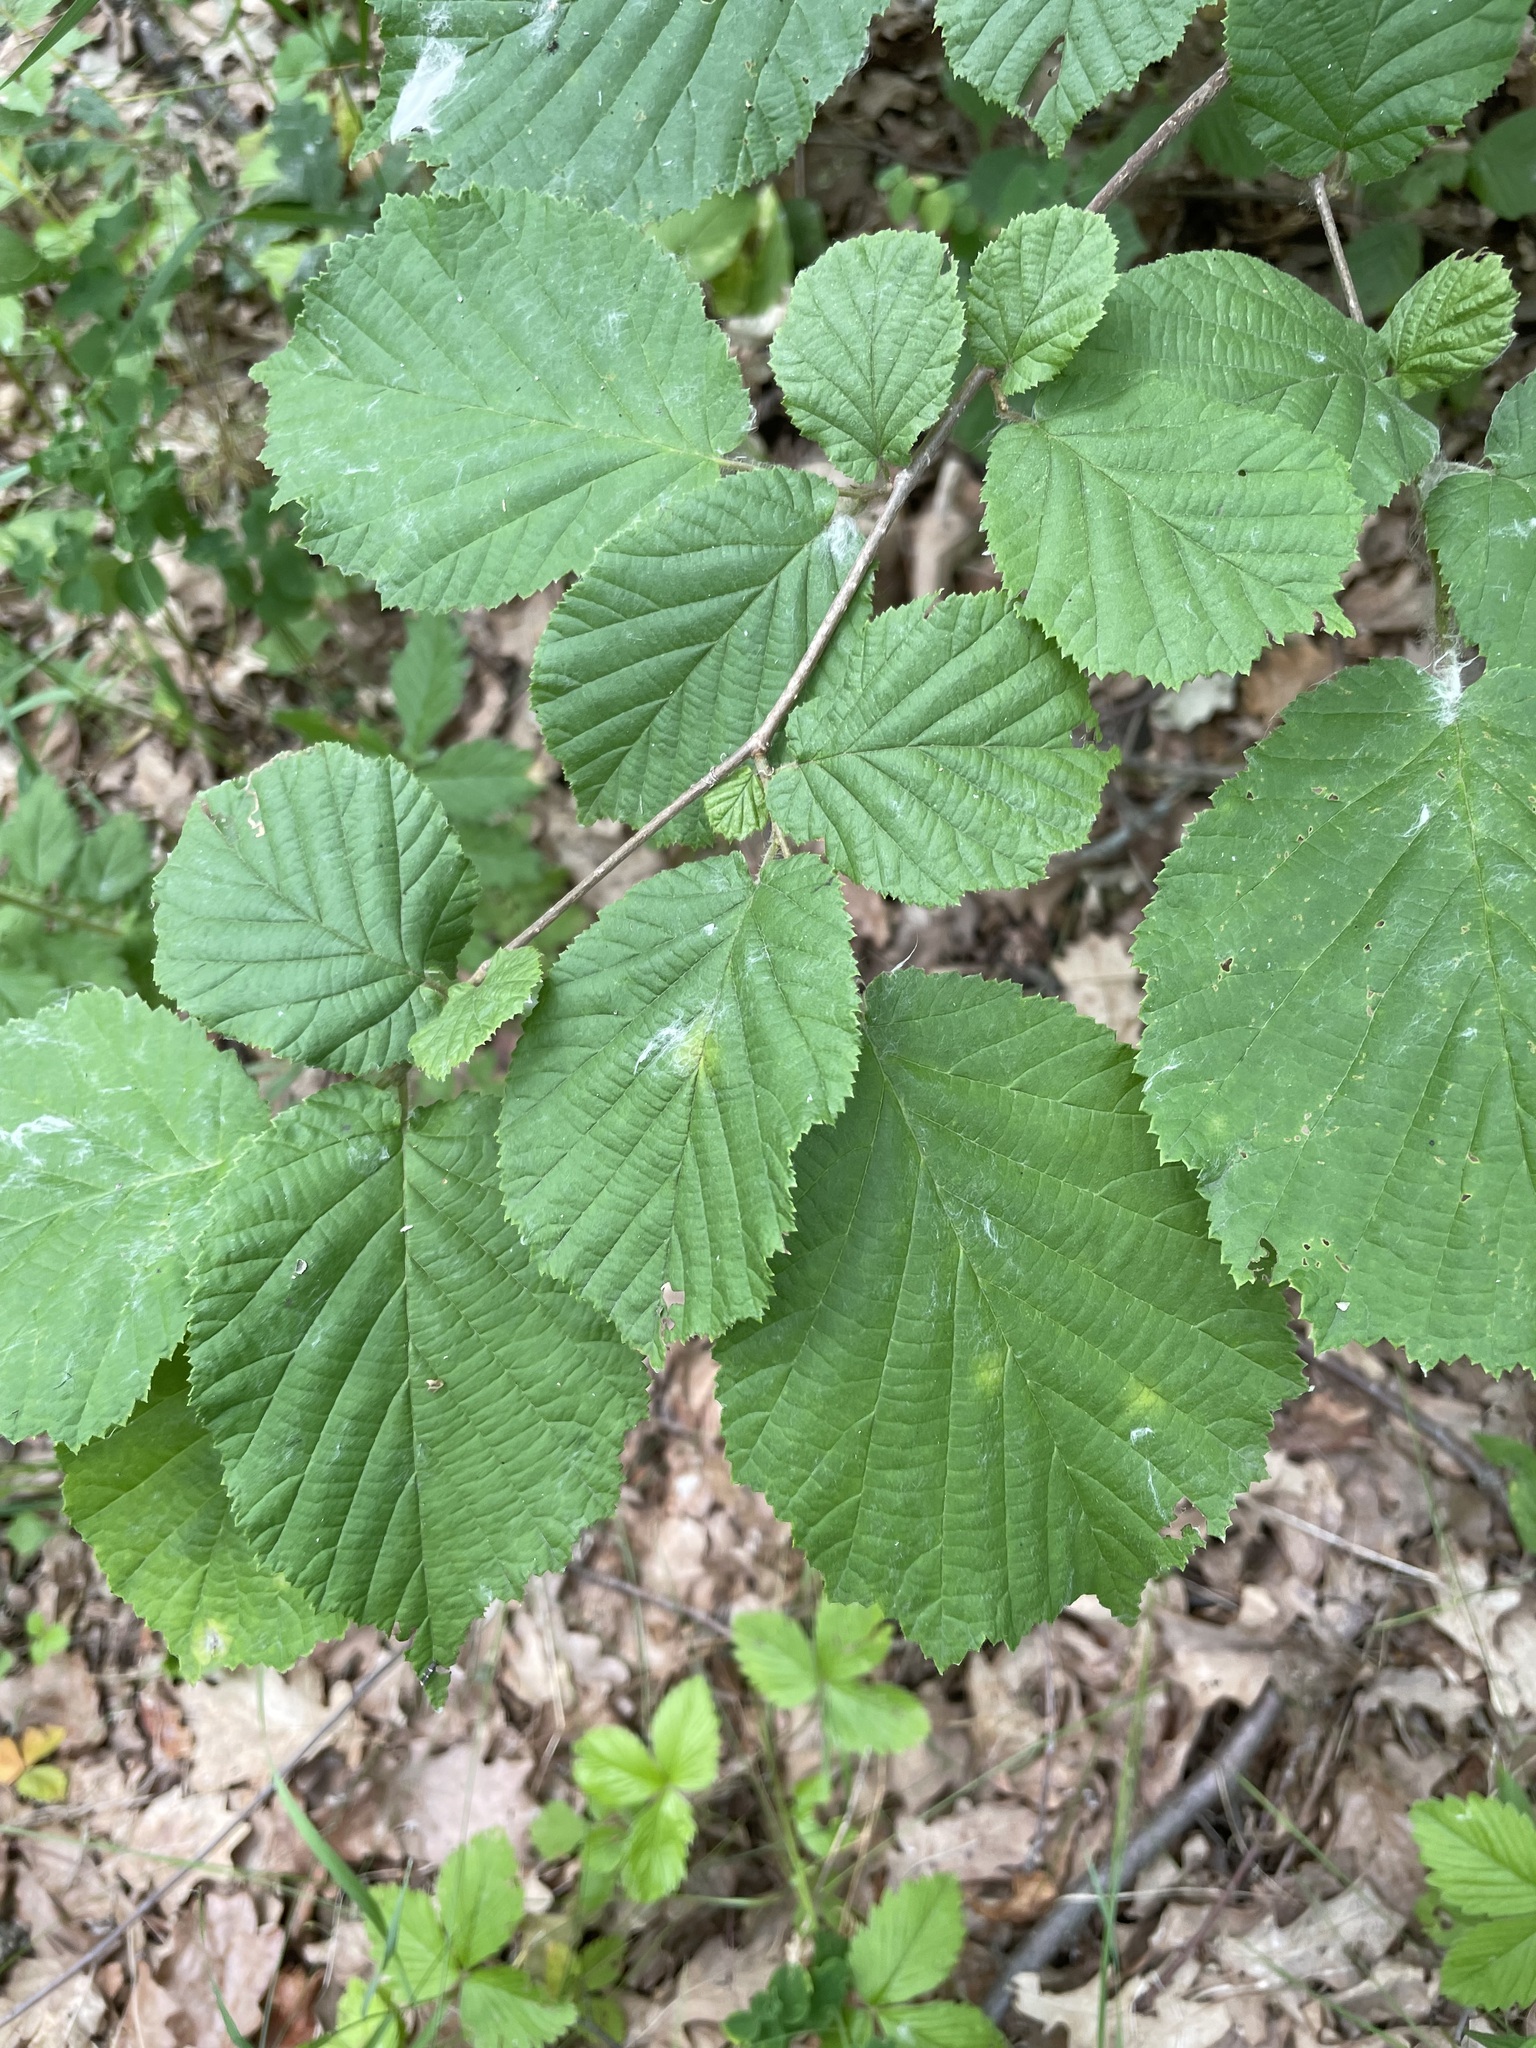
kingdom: Plantae
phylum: Tracheophyta
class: Magnoliopsida
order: Fagales
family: Betulaceae
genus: Corylus
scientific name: Corylus avellana
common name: European hazel
